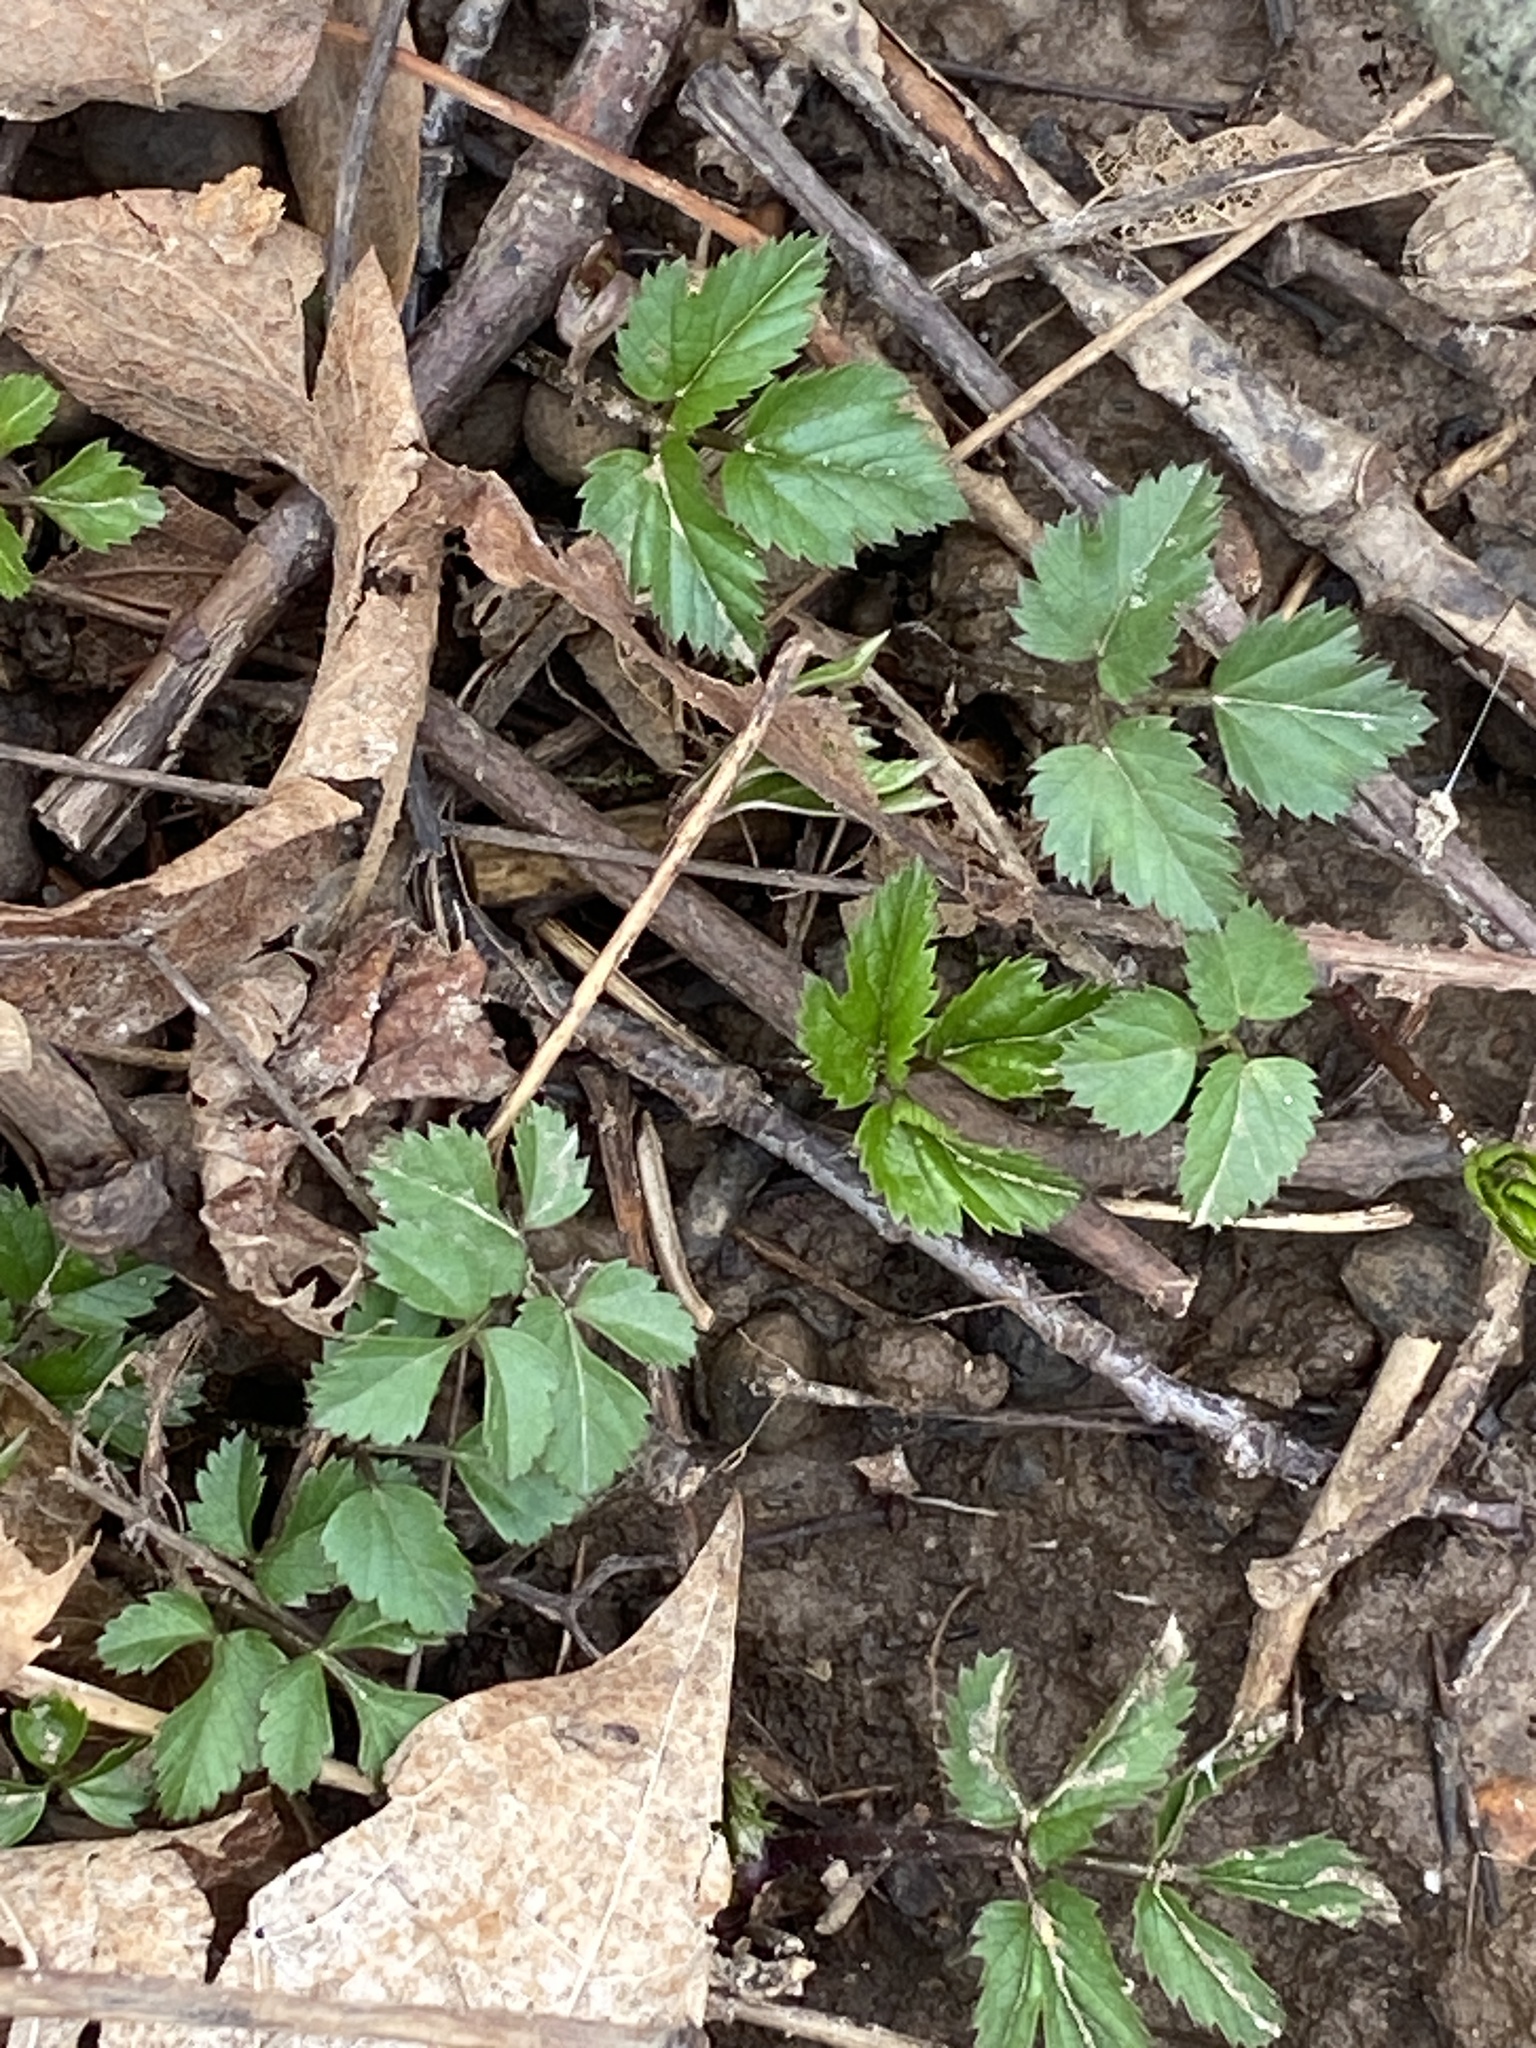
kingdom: Plantae
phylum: Tracheophyta
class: Magnoliopsida
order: Apiales
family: Apiaceae
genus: Aegopodium
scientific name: Aegopodium podagraria
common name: Ground-elder
